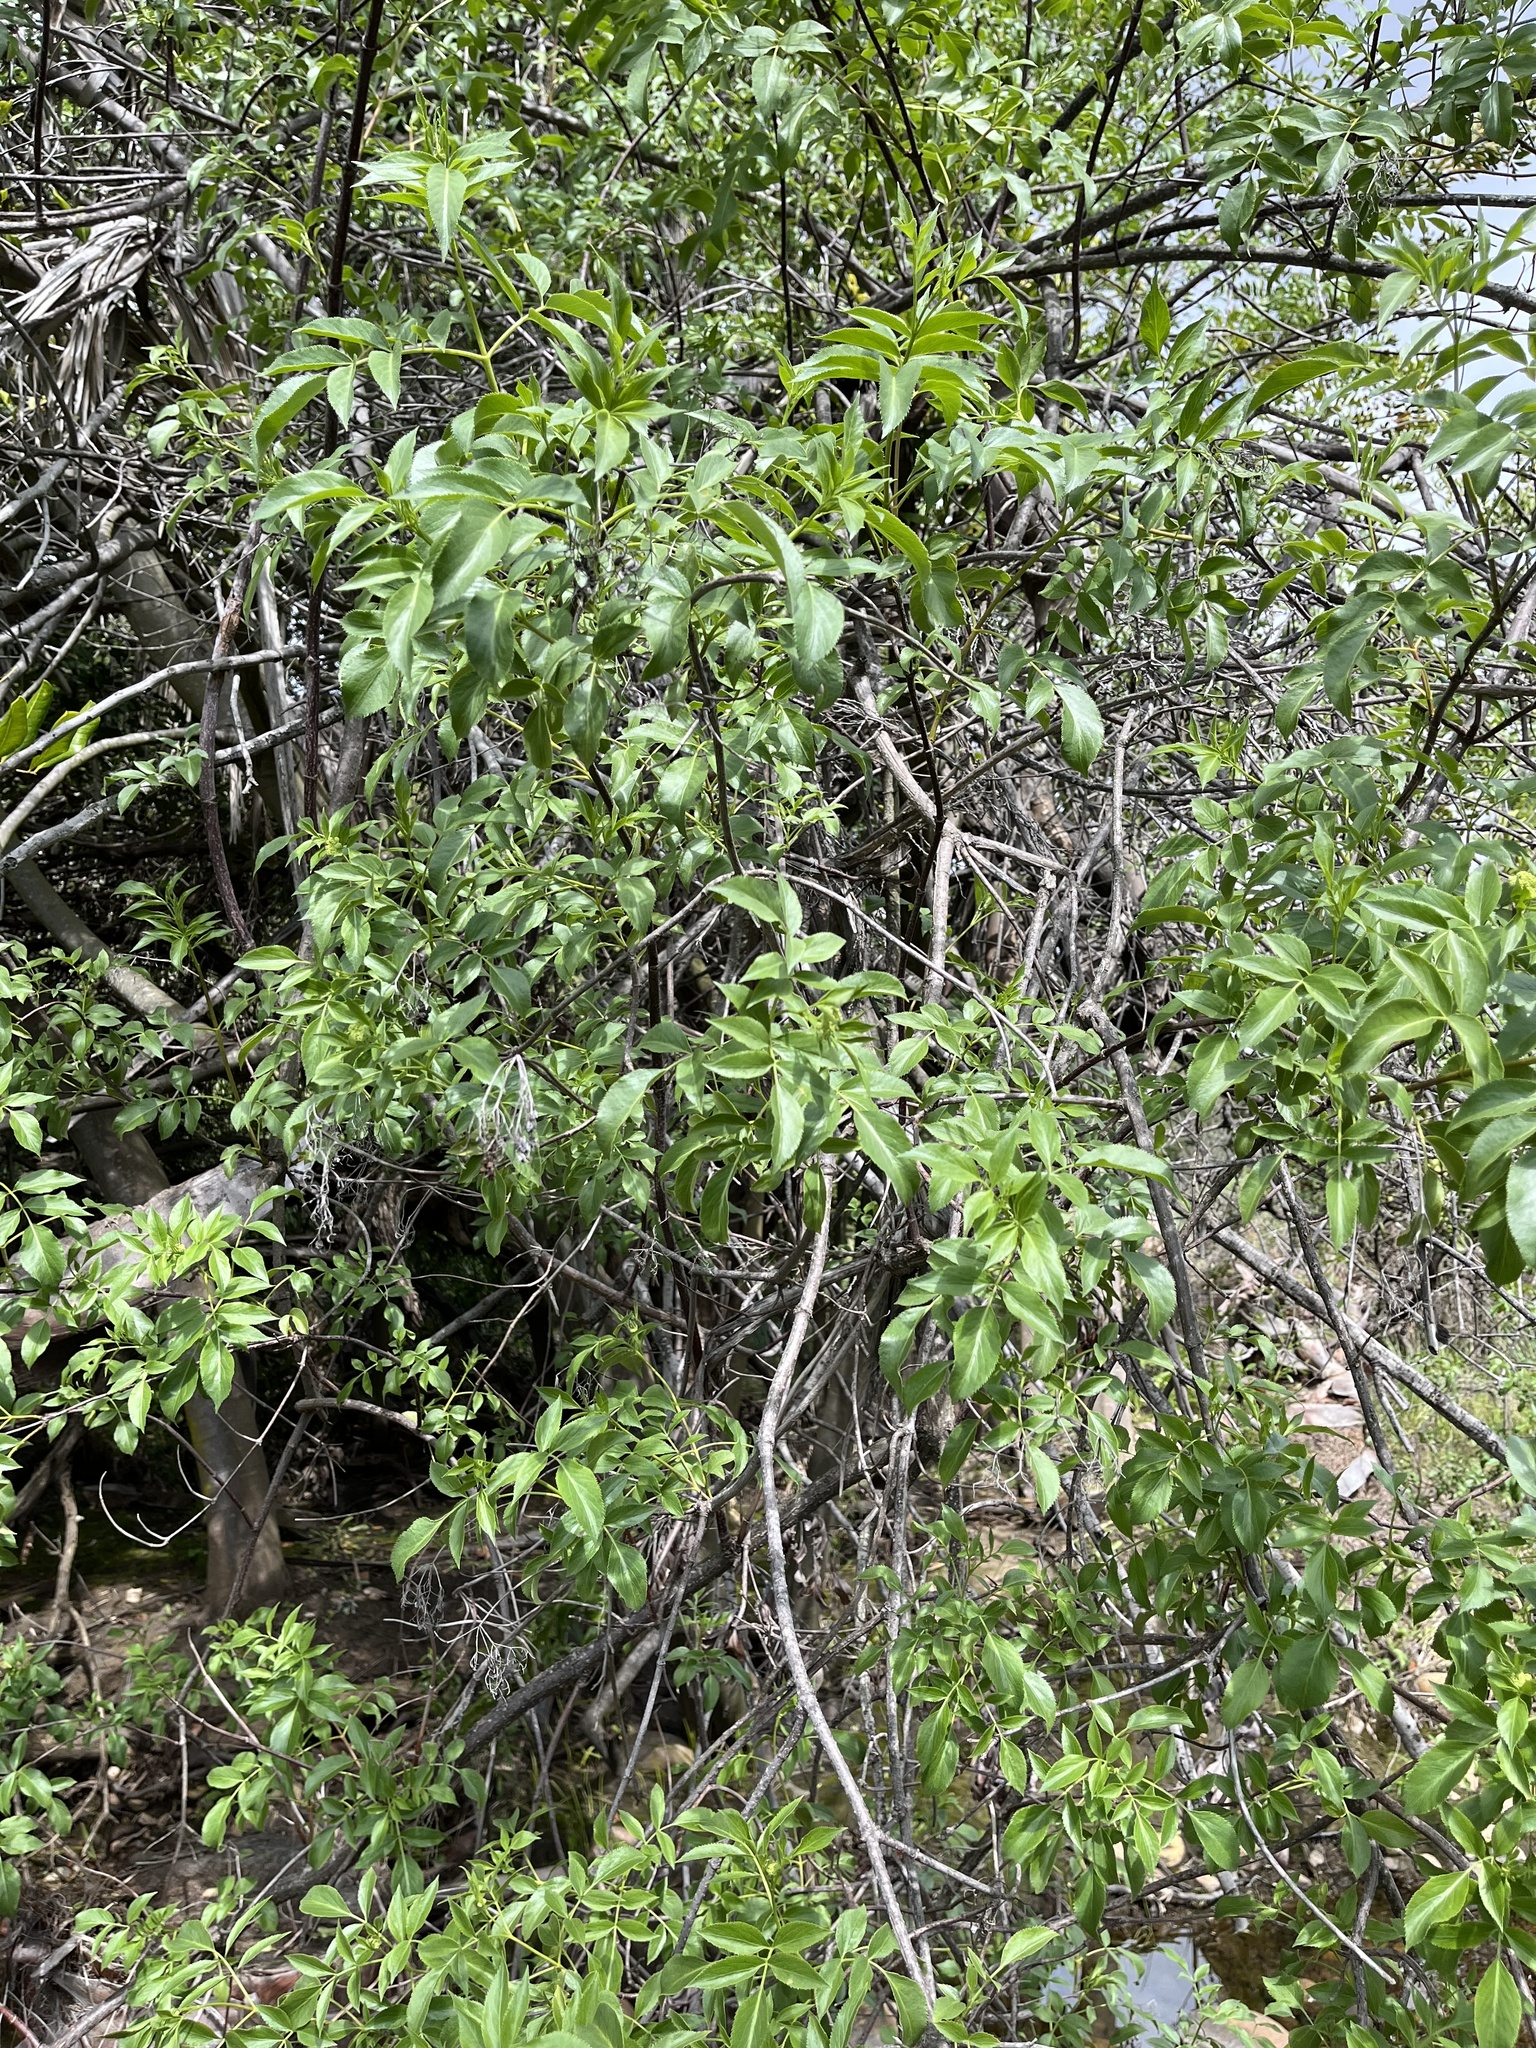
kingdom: Plantae
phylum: Tracheophyta
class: Magnoliopsida
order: Dipsacales
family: Viburnaceae
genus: Sambucus
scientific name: Sambucus cerulea
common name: Blue elder
